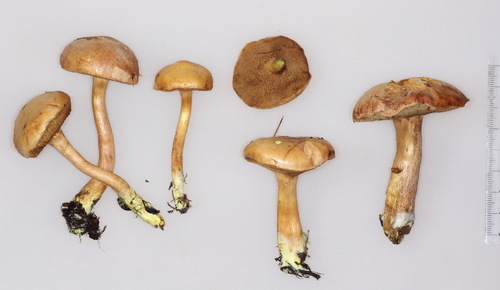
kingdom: Fungi
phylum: Basidiomycota
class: Agaricomycetes
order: Boletales
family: Boletaceae
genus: Chalciporus
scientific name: Chalciporus piperatus
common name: Peppery bolete
